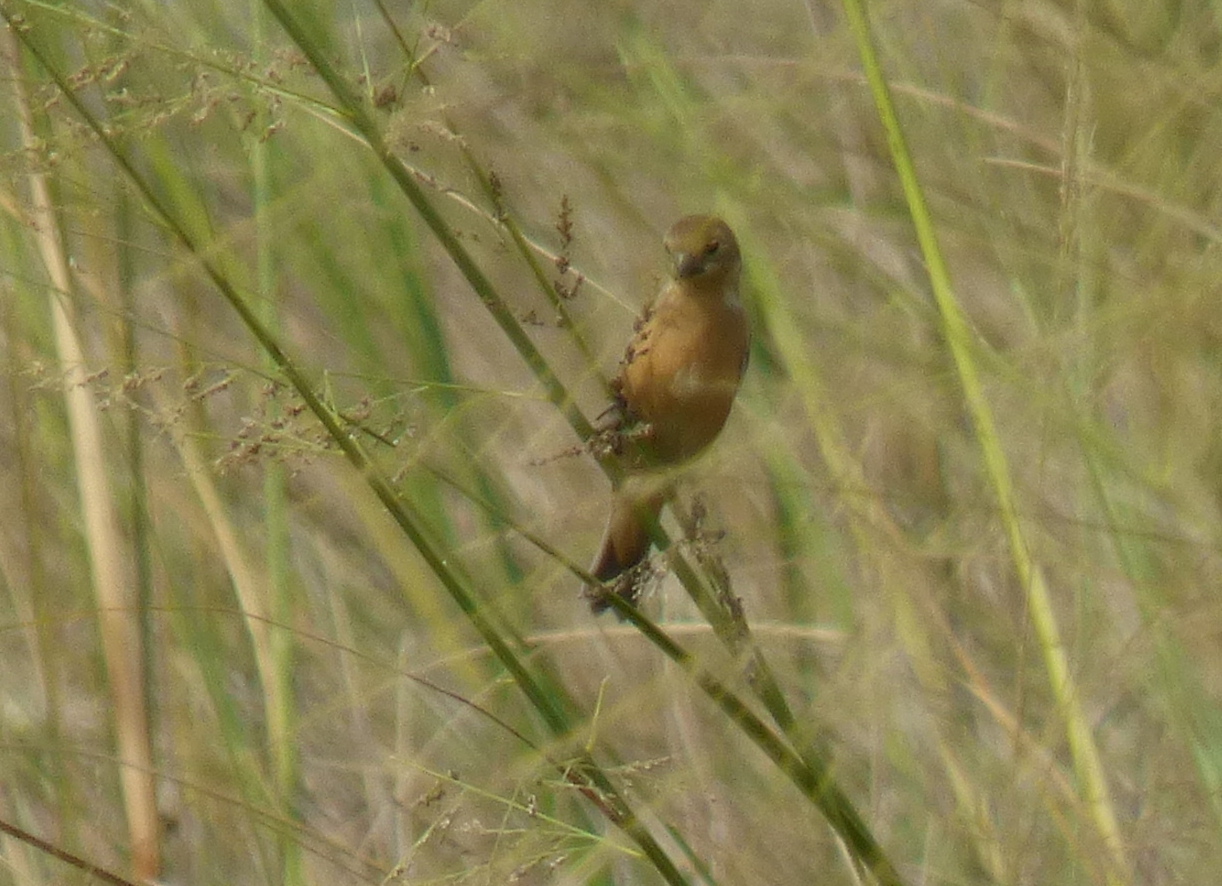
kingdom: Animalia
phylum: Chordata
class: Aves
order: Passeriformes
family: Thraupidae
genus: Sporophila
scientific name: Sporophila cinnamomea
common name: Chestnut seedeater
